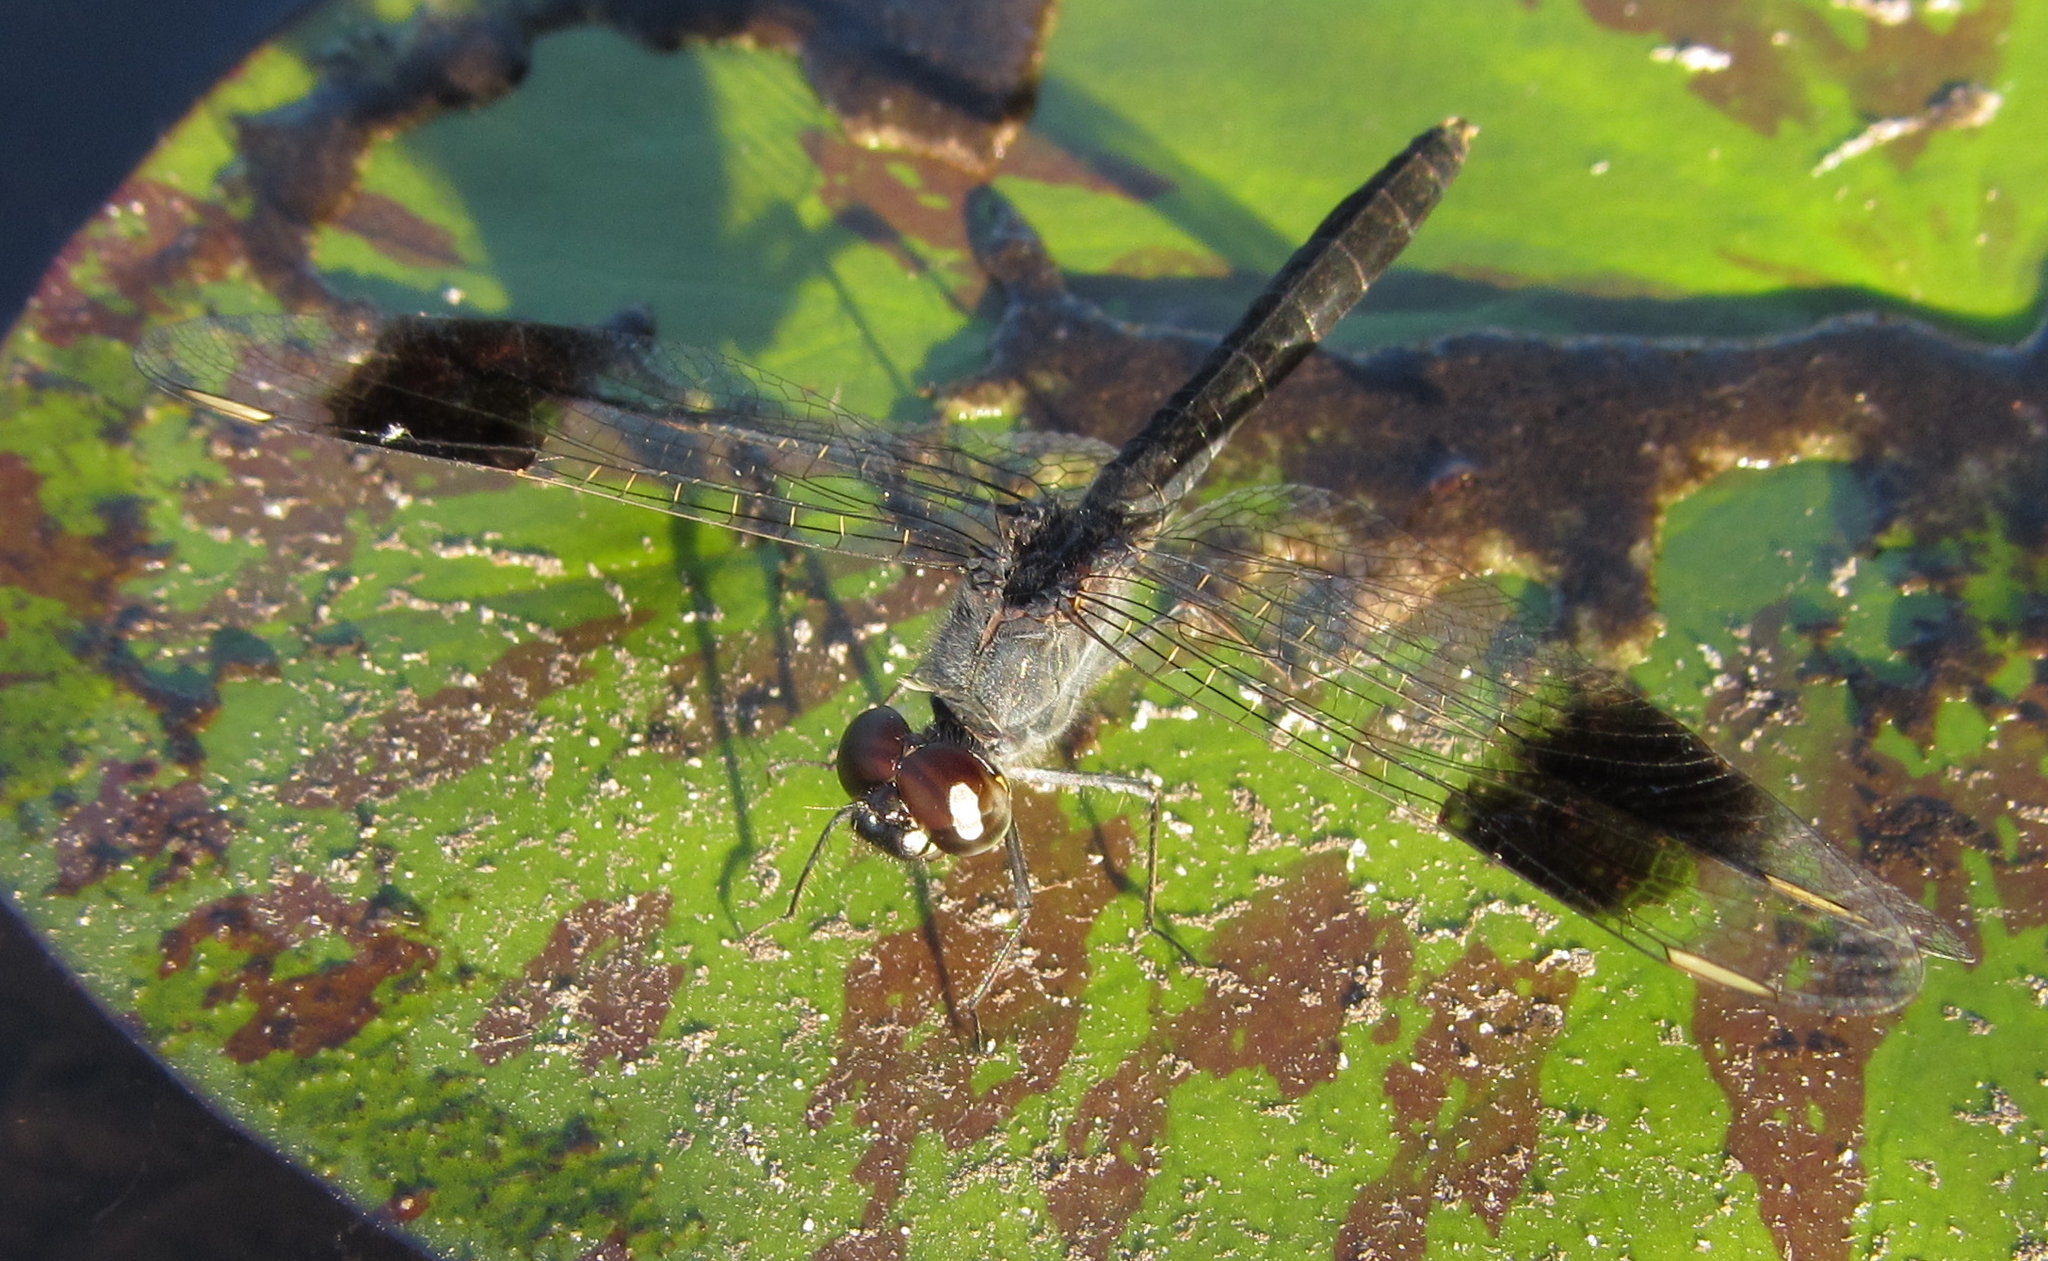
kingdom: Animalia
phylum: Arthropoda
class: Insecta
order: Odonata
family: Libellulidae
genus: Brachythemis
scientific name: Brachythemis leucosticta
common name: Banded groundling
